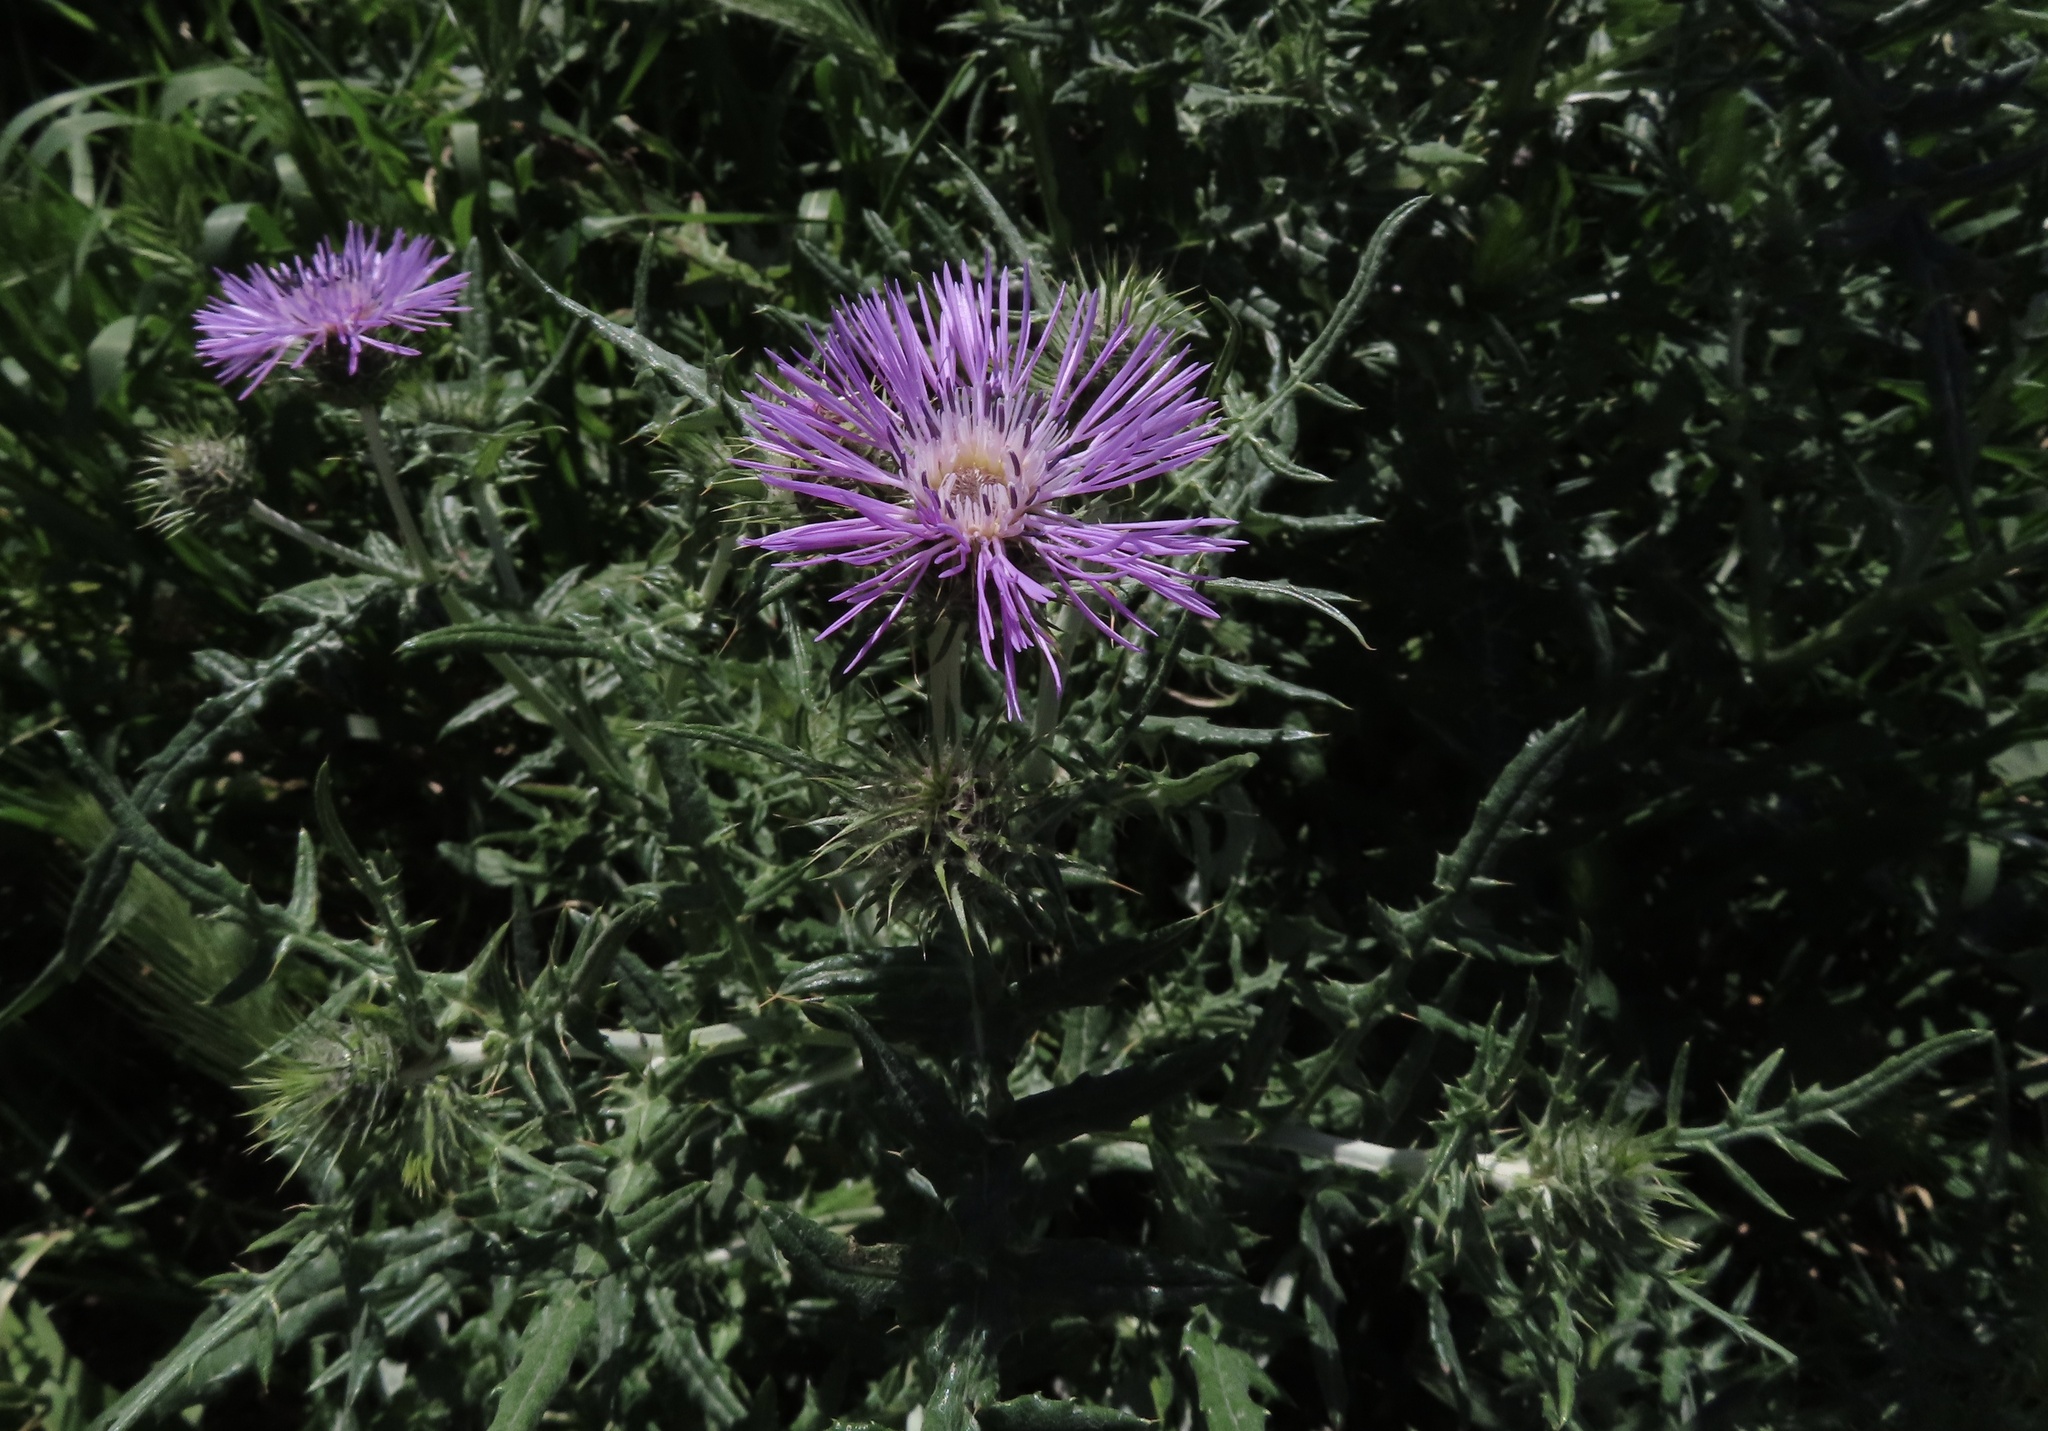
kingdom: Plantae
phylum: Tracheophyta
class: Magnoliopsida
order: Asterales
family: Asteraceae
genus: Galactites
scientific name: Galactites tomentosa
